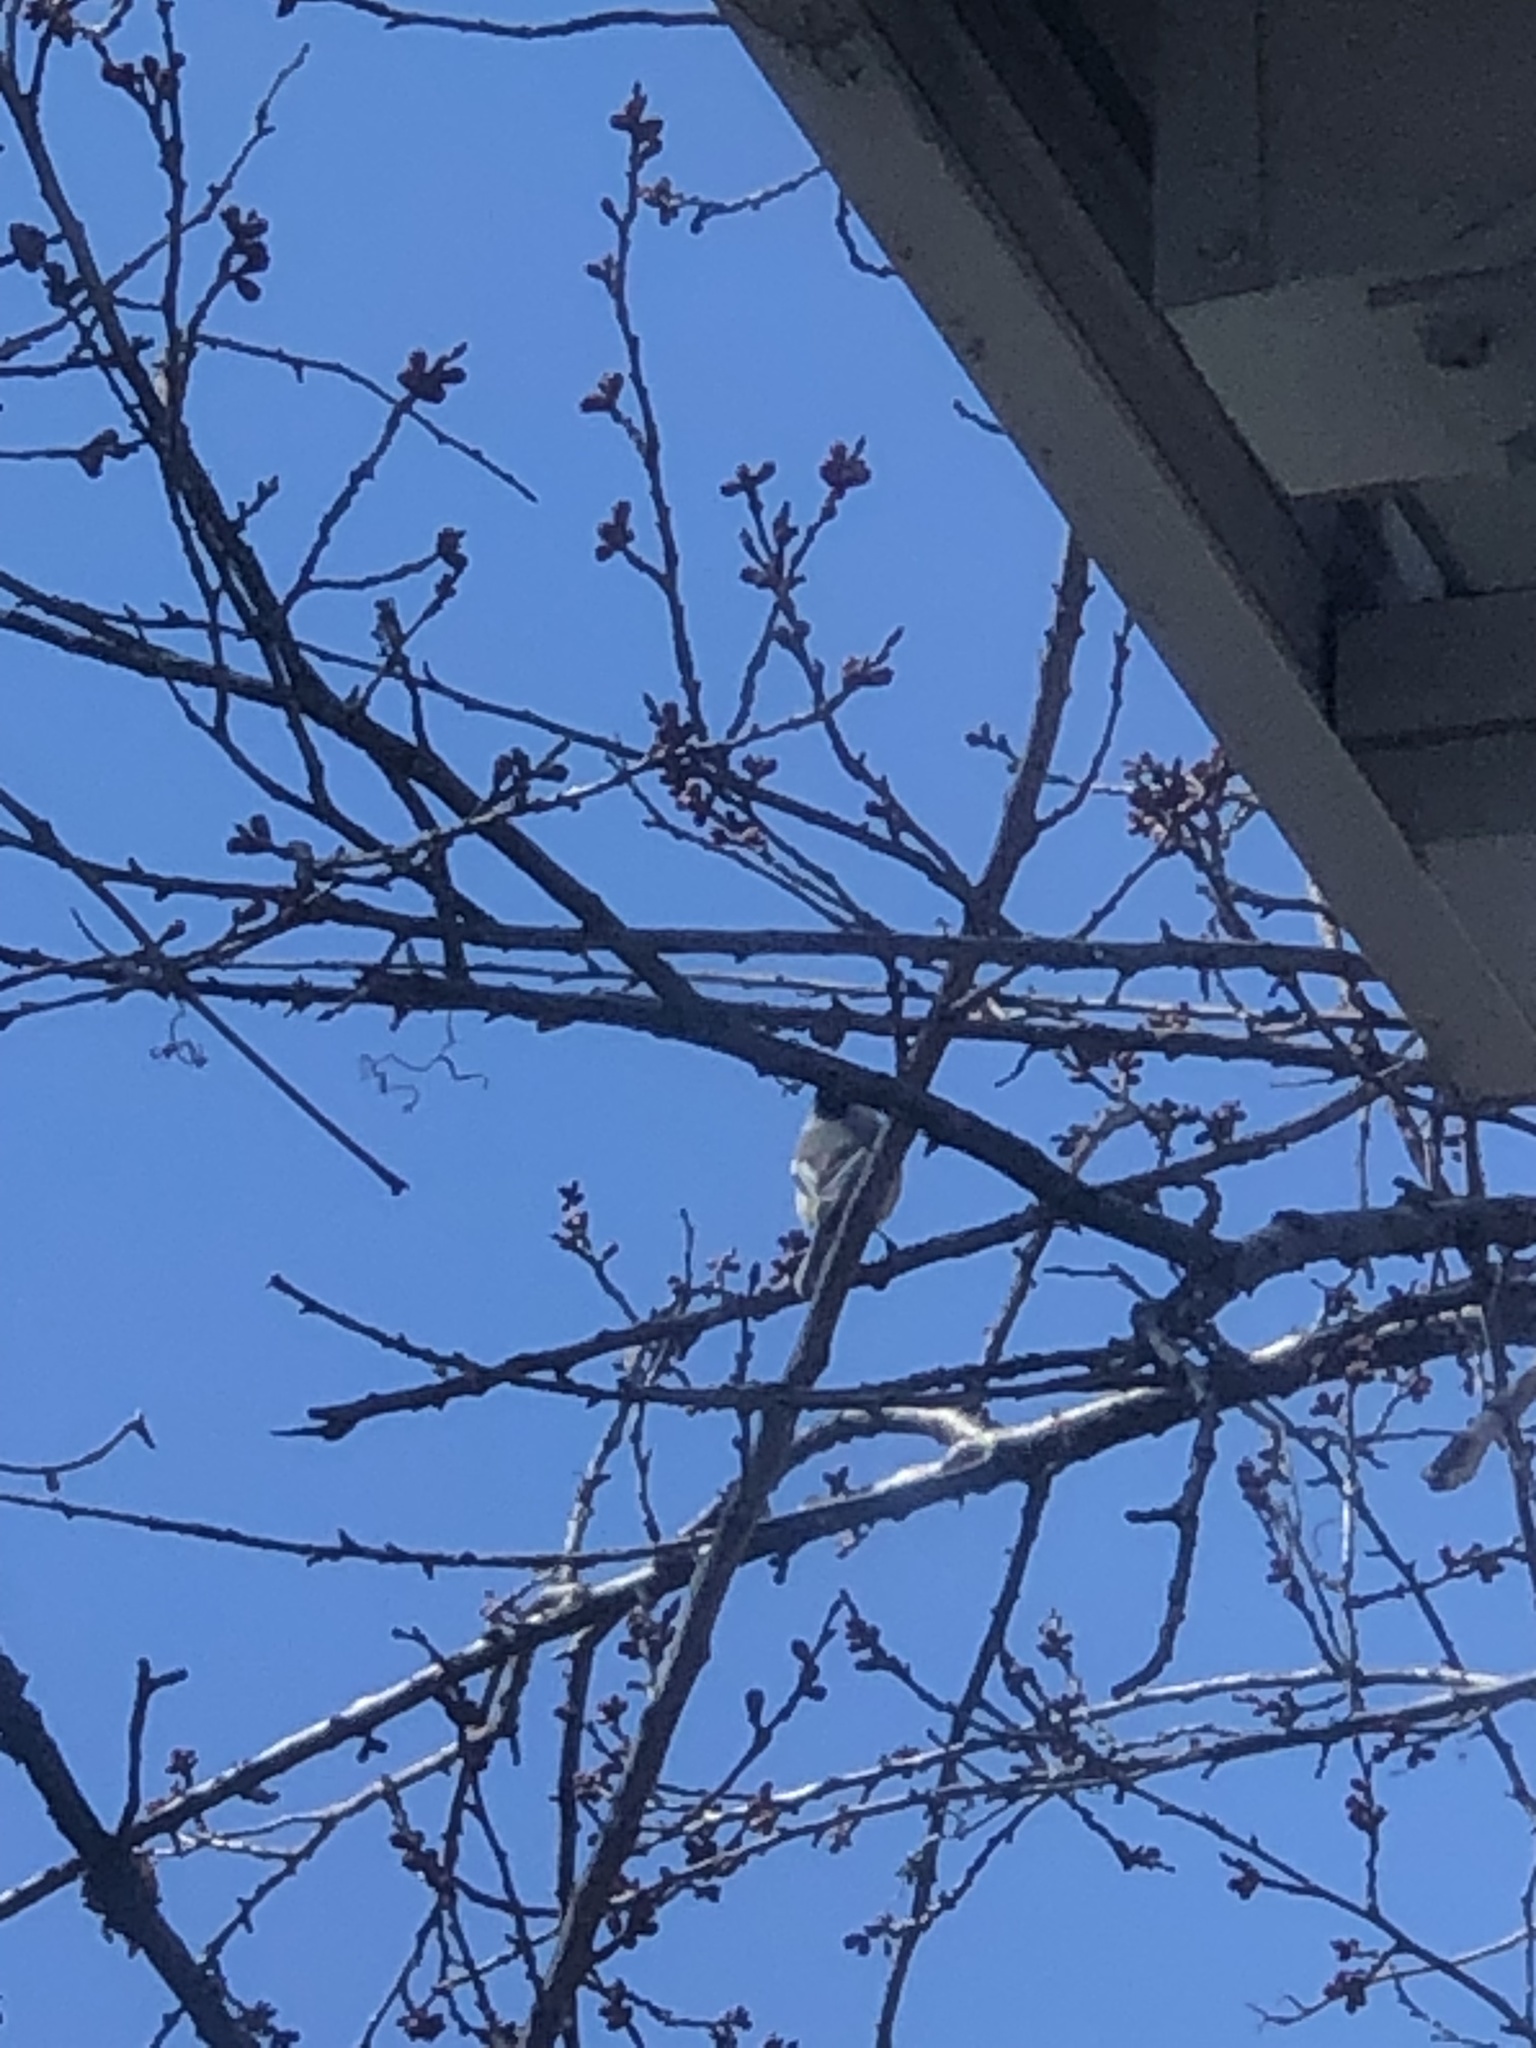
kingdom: Animalia
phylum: Chordata
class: Aves
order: Passeriformes
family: Paridae
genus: Poecile
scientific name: Poecile atricapillus
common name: Black-capped chickadee
